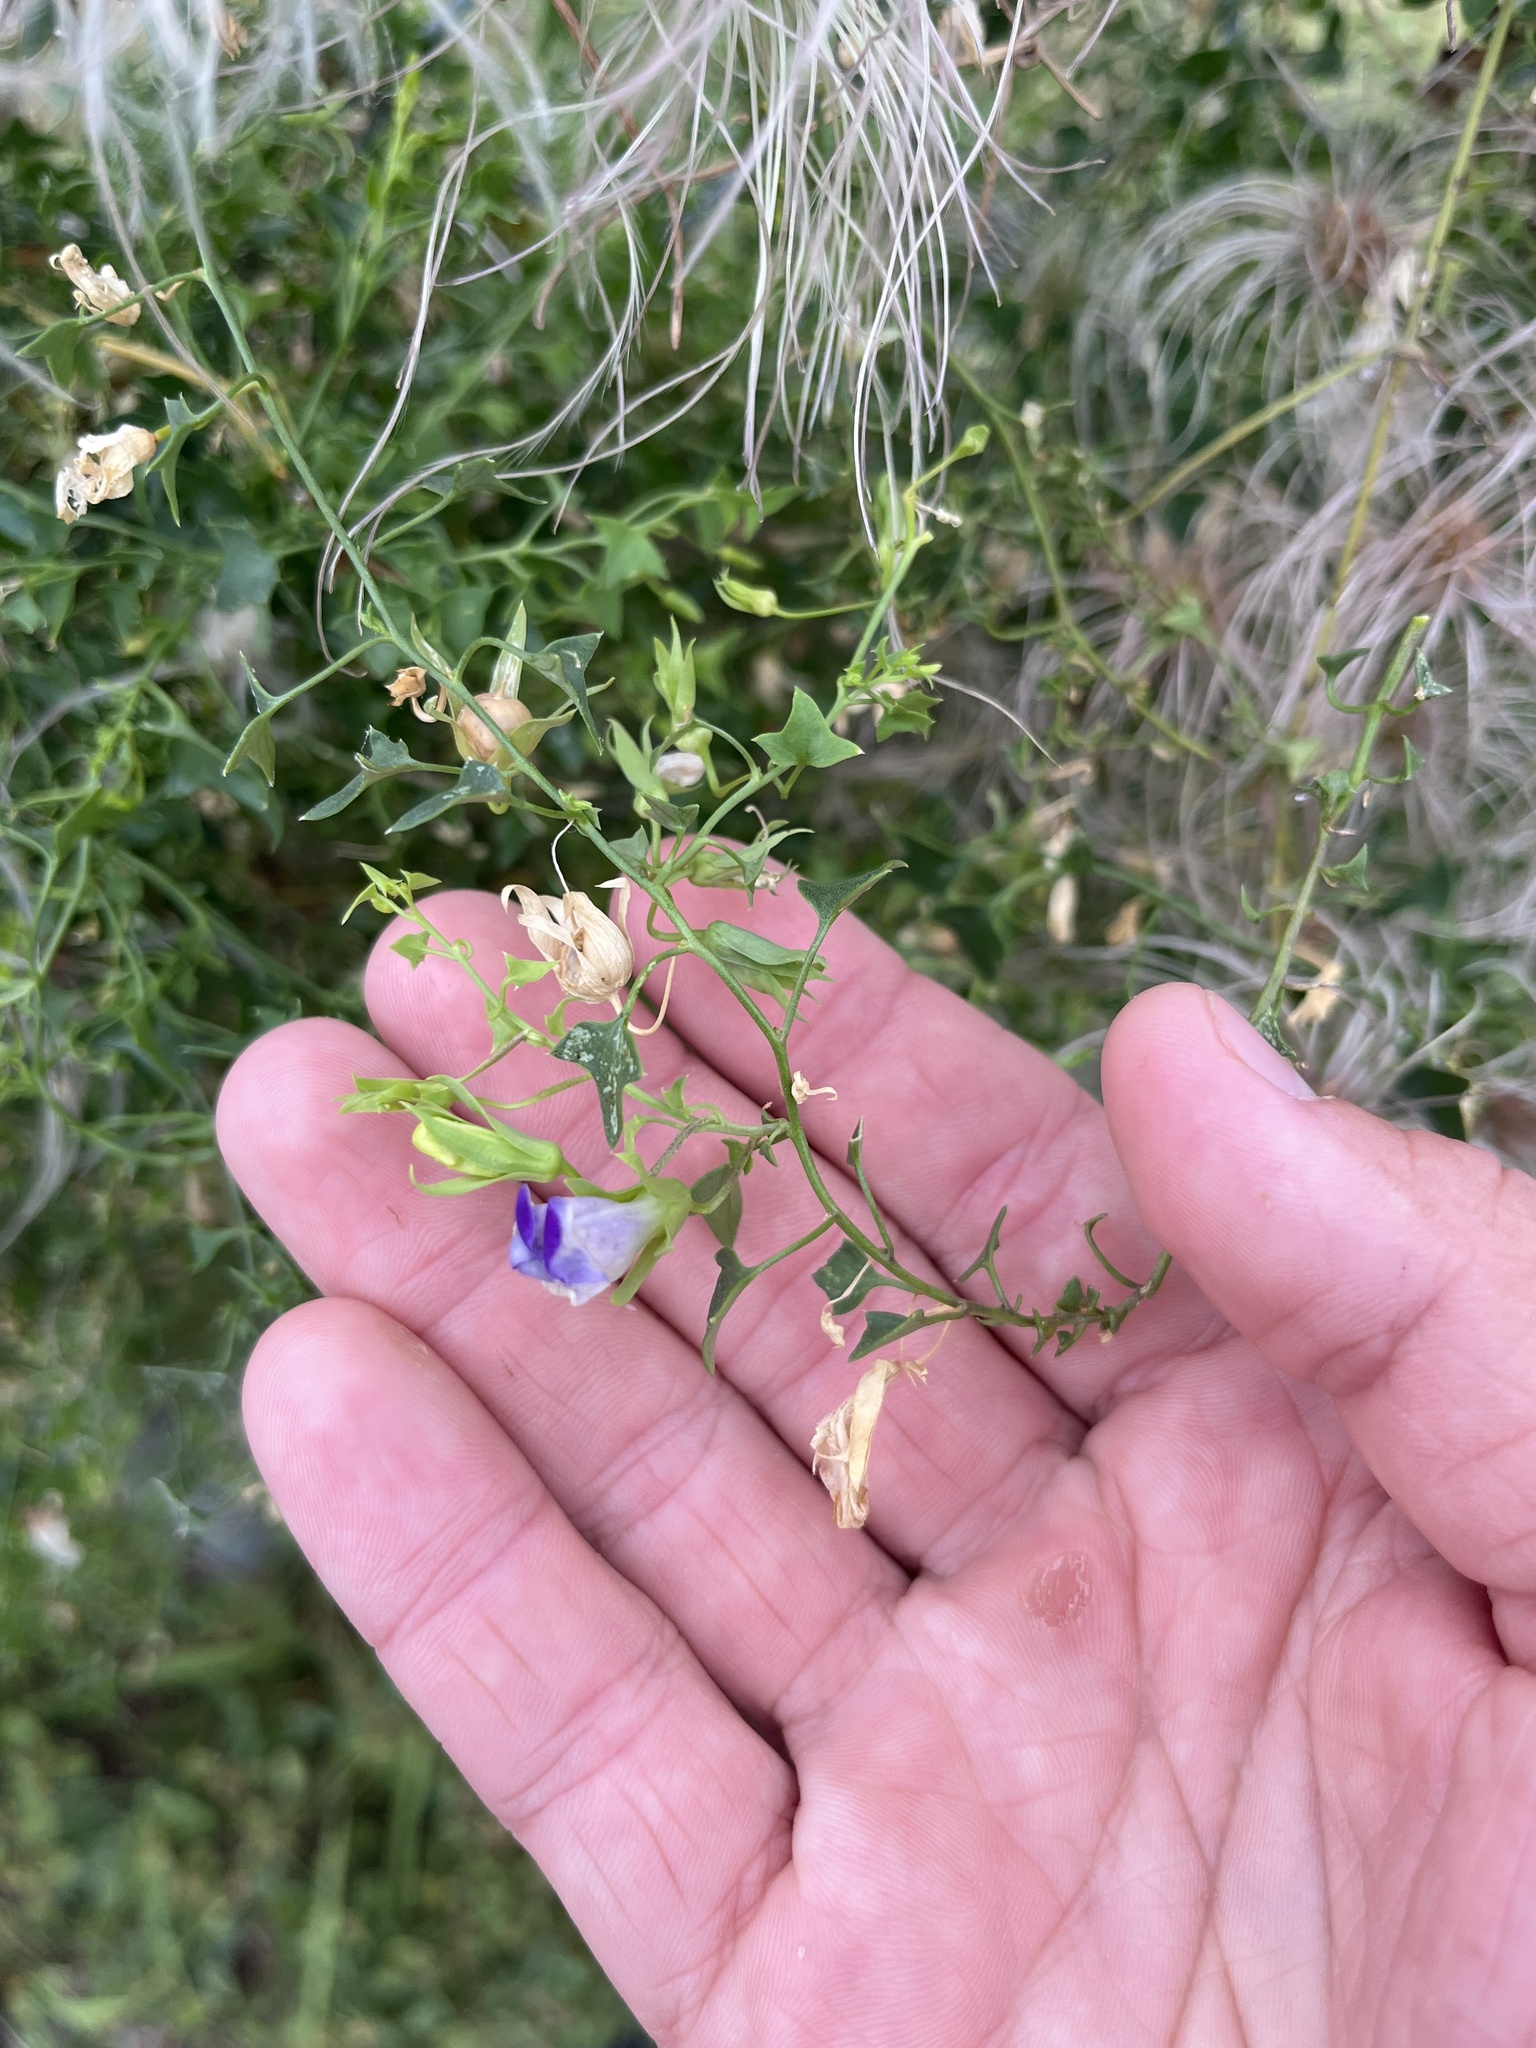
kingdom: Plantae
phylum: Tracheophyta
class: Magnoliopsida
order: Lamiales
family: Plantaginaceae
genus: Maurandella
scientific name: Maurandella antirrhiniflora
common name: Violet twining-snapdragon
